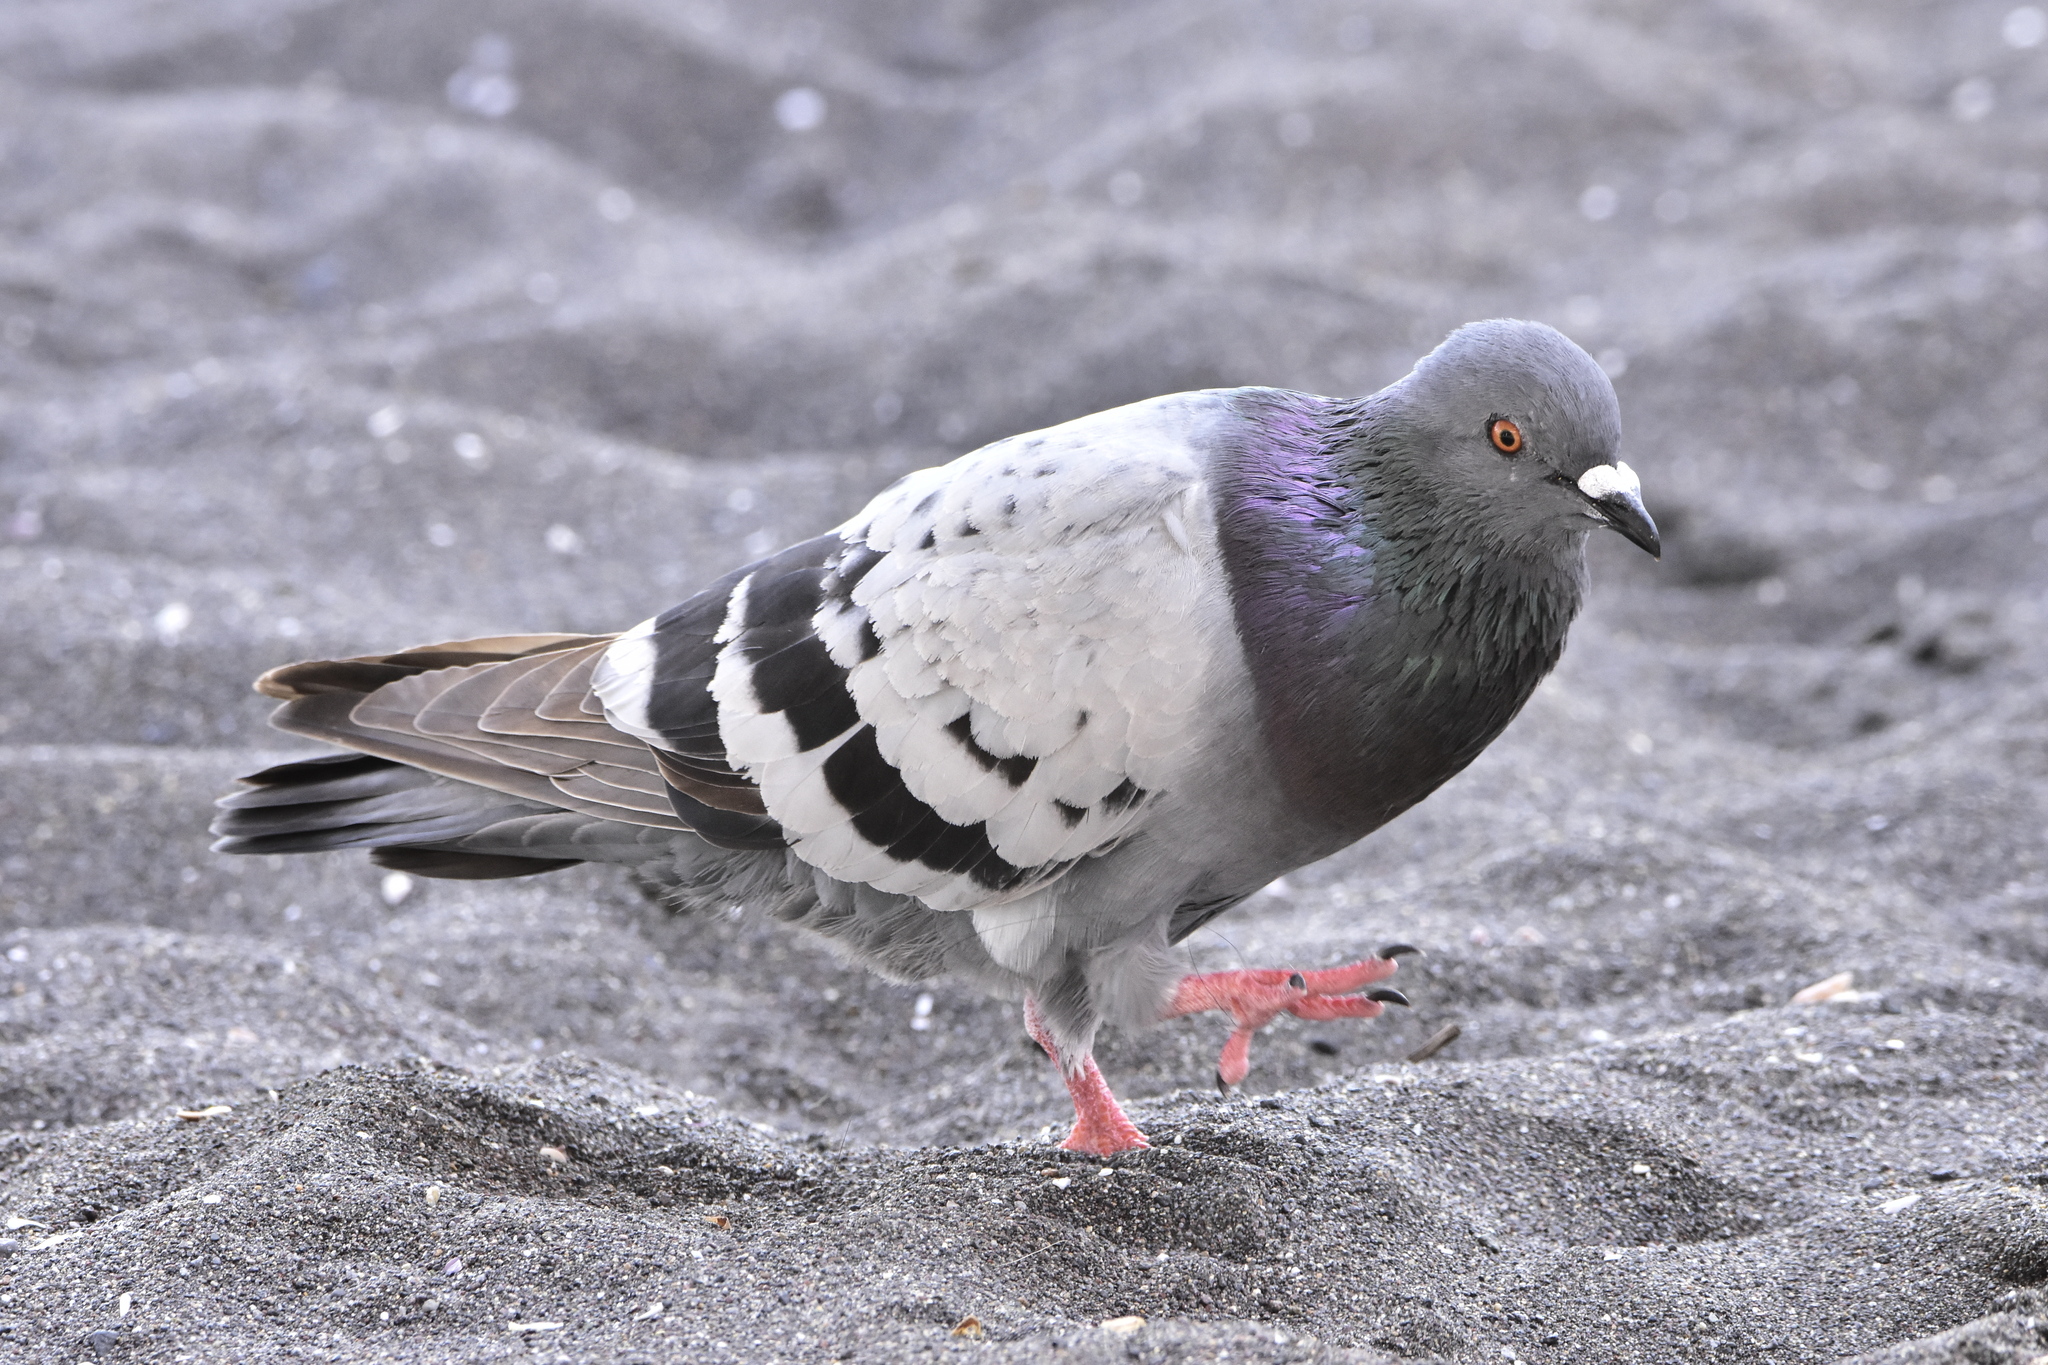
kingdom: Animalia
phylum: Chordata
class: Aves
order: Columbiformes
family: Columbidae
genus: Columba
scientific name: Columba livia
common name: Rock pigeon
